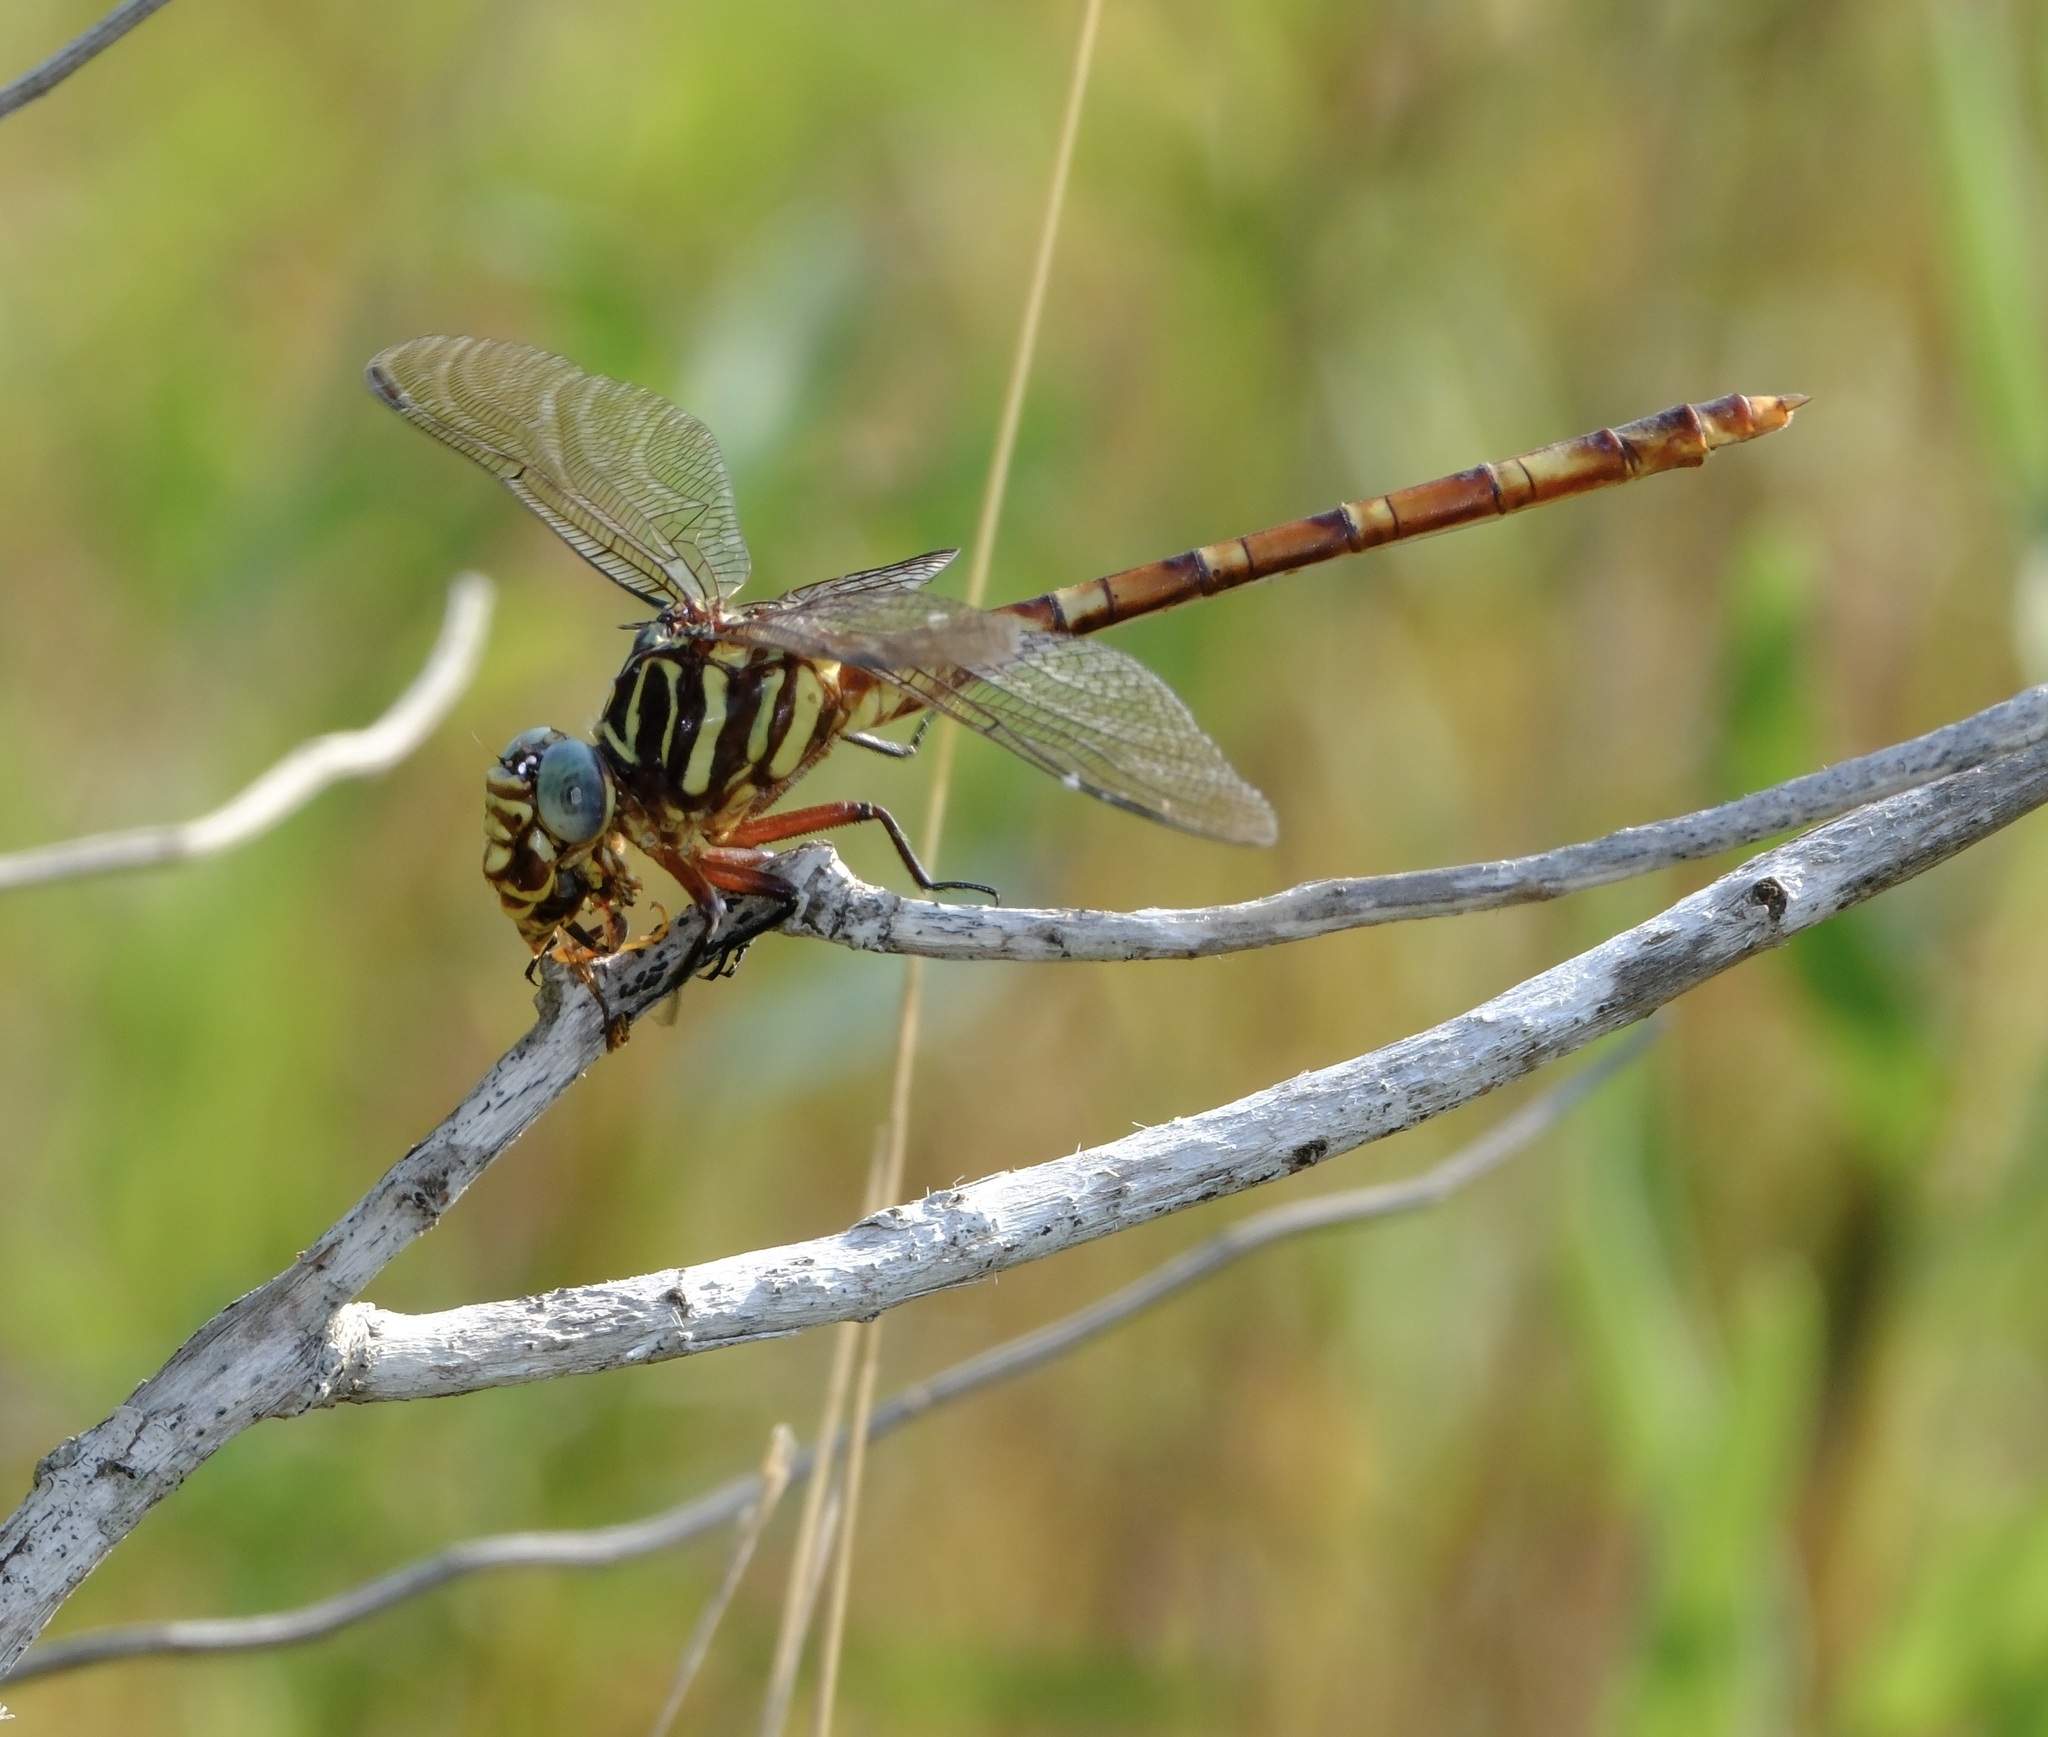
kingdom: Animalia
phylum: Arthropoda
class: Insecta
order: Odonata
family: Gomphidae
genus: Aphylla
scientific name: Aphylla angustifolia
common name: Broad-striped forceptail
